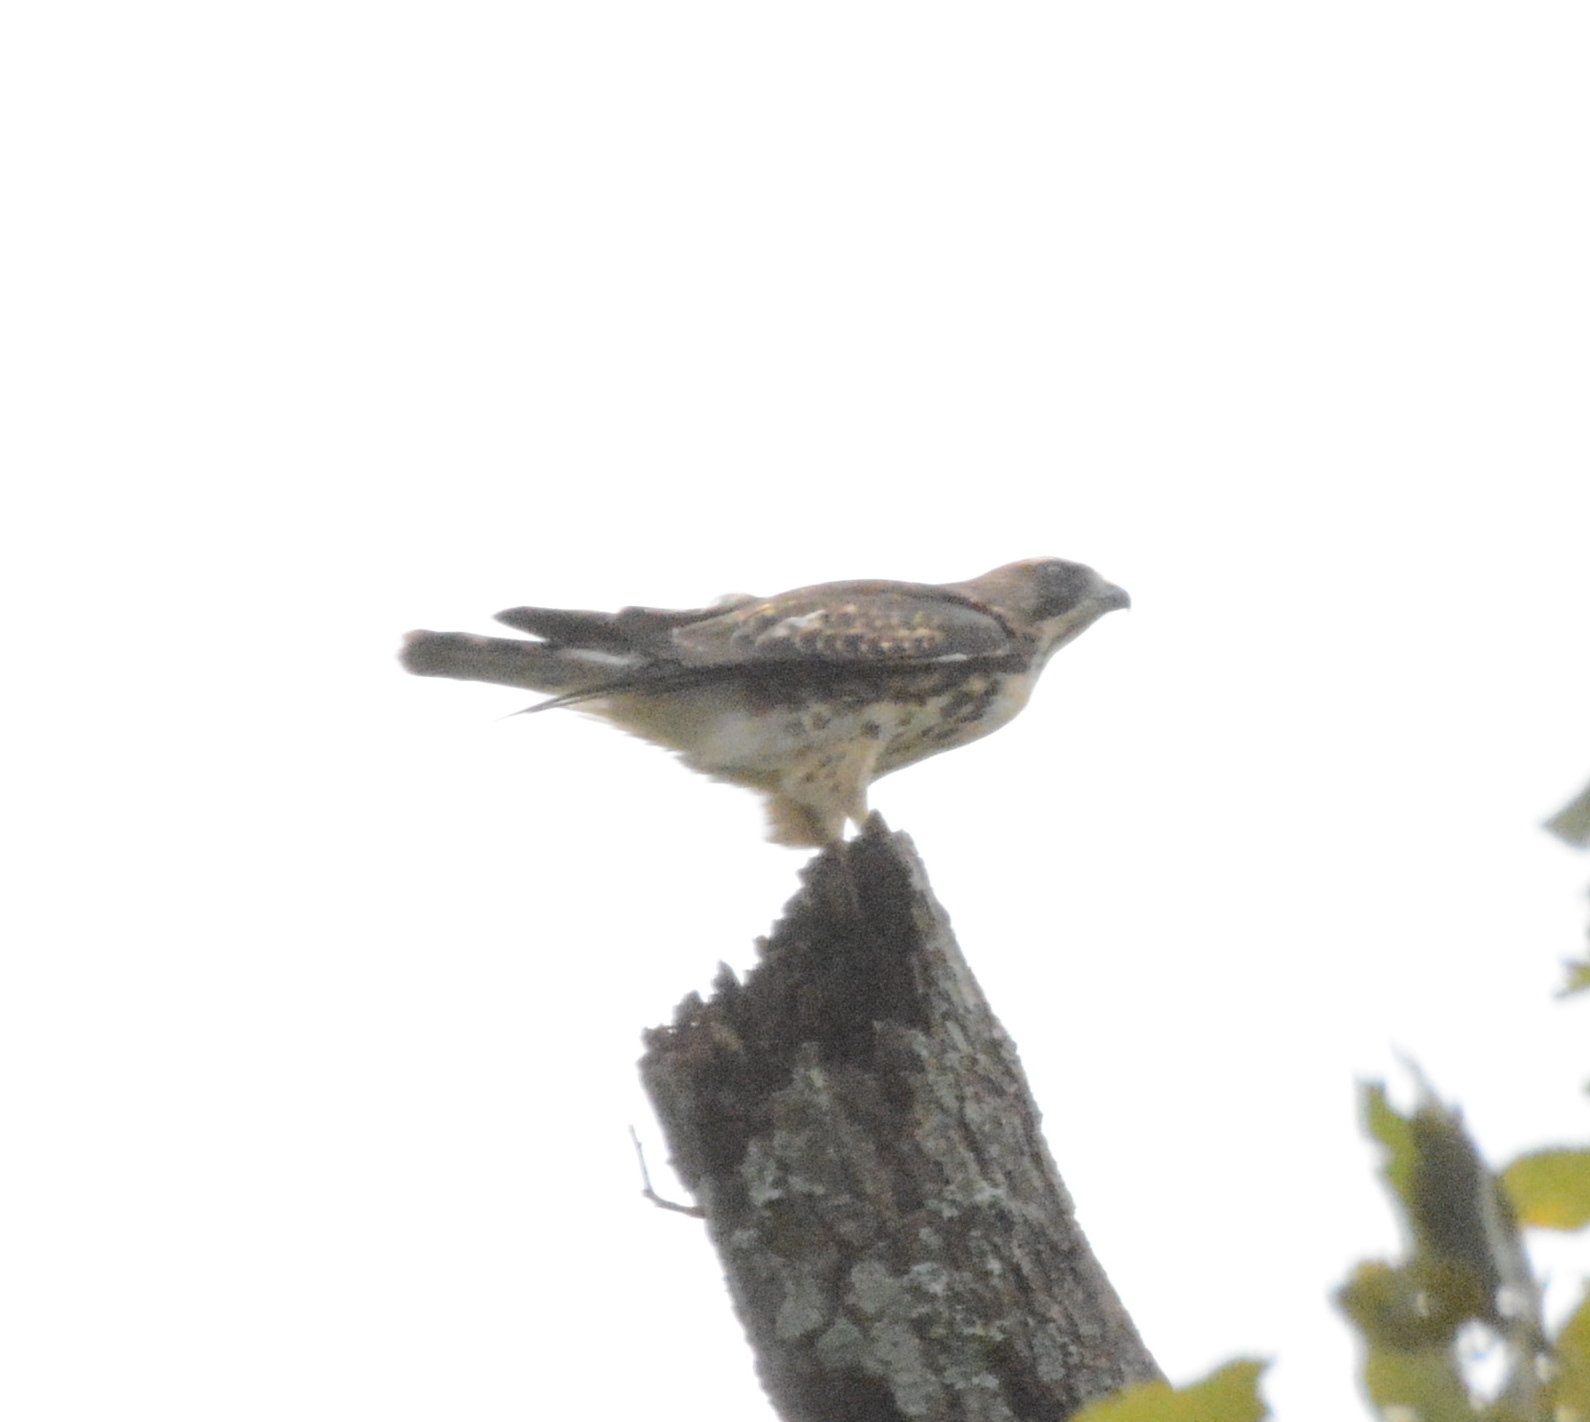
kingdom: Animalia
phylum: Chordata
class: Aves
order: Accipitriformes
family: Accipitridae
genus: Buteo
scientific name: Buteo platypterus
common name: Broad-winged hawk
